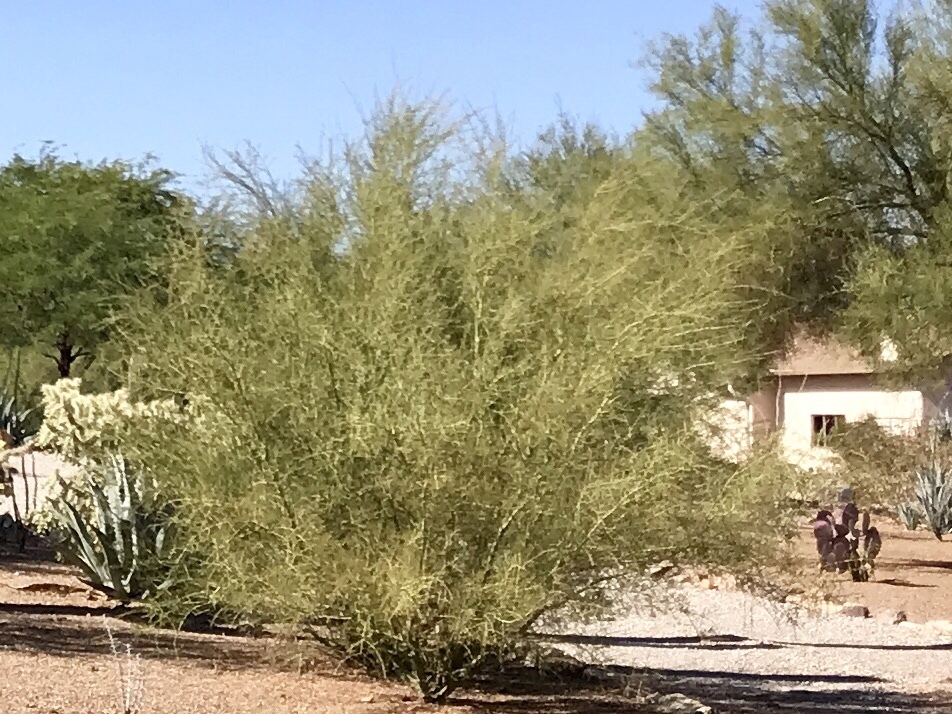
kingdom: Plantae
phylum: Tracheophyta
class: Magnoliopsida
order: Fabales
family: Fabaceae
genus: Parkinsonia
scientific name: Parkinsonia microphylla
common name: Yellow paloverde
